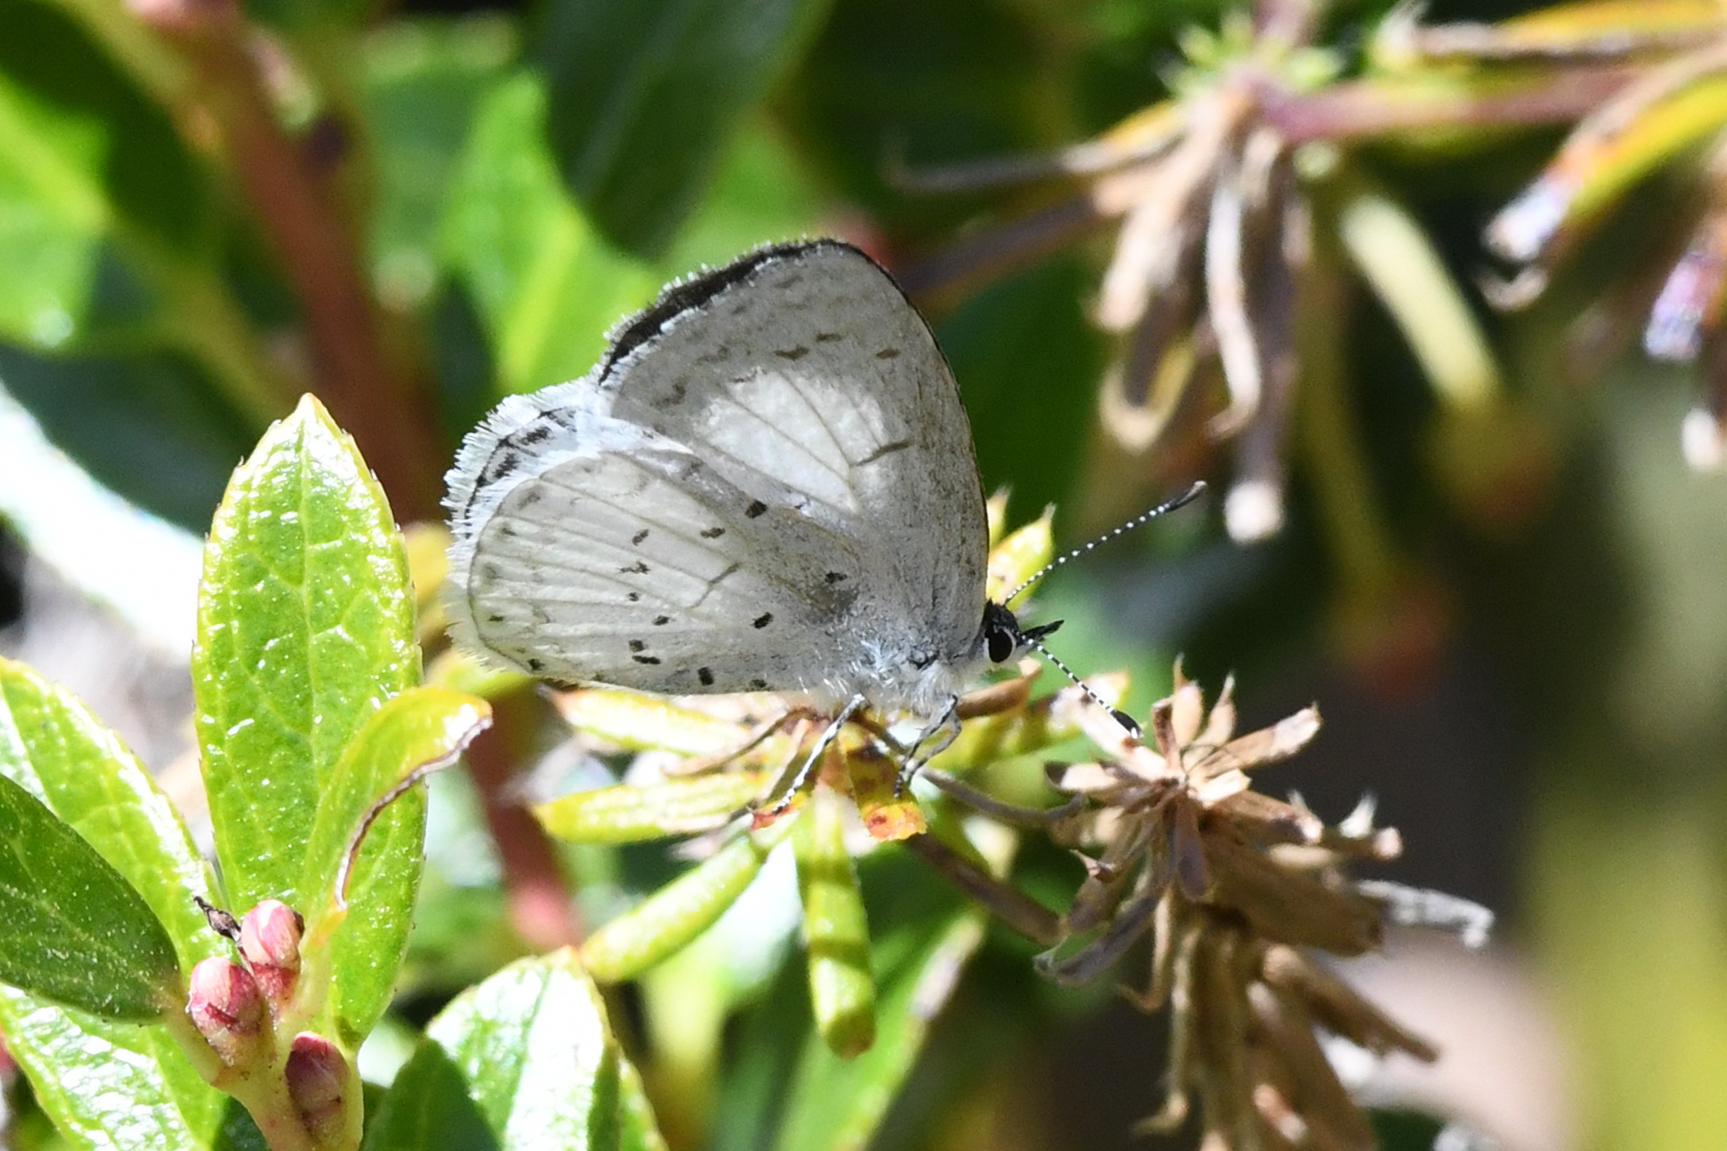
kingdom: Animalia
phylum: Arthropoda
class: Insecta
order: Lepidoptera
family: Lycaenidae
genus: Celastrina
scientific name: Celastrina ladon
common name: Spring azure
